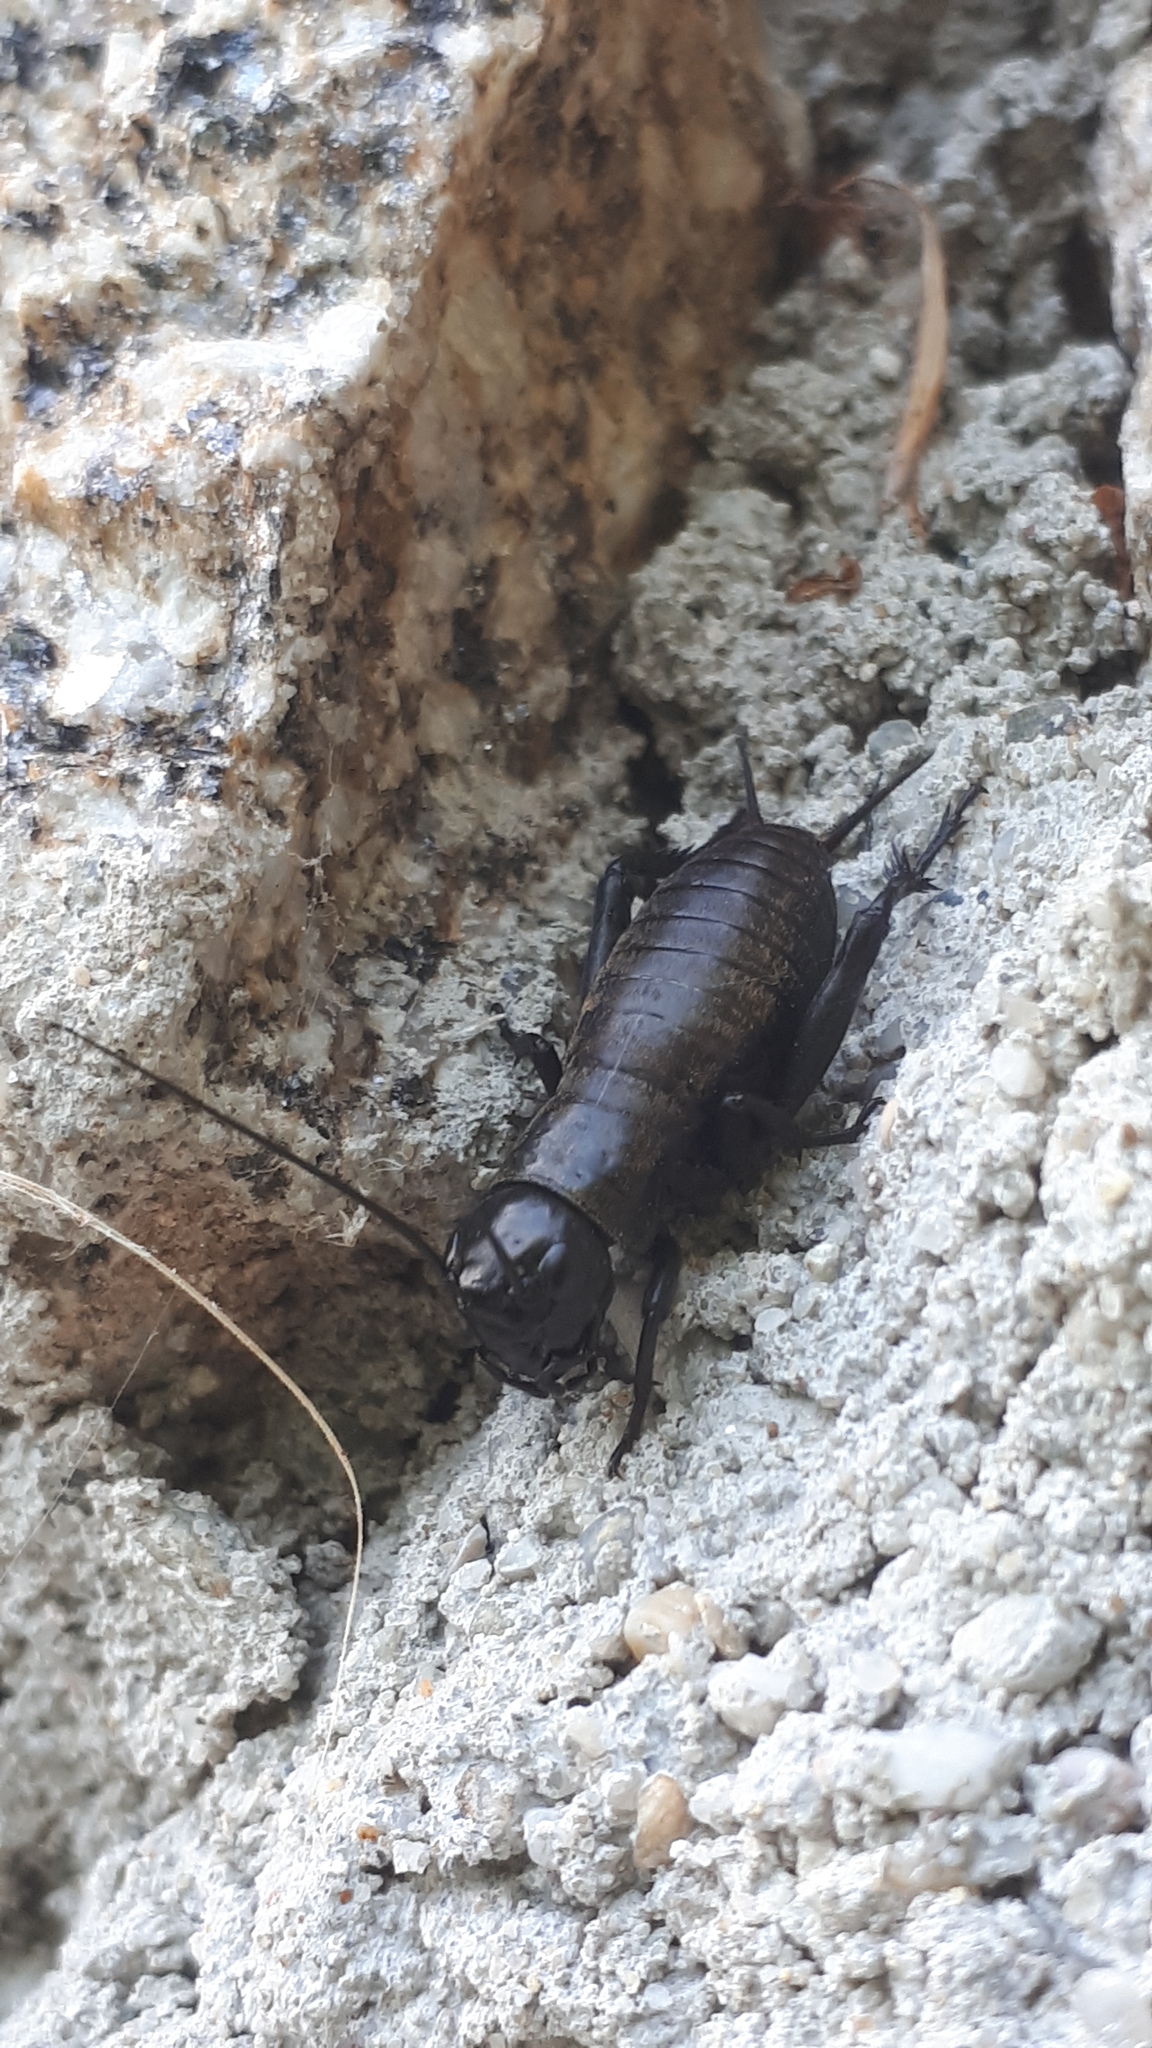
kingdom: Animalia
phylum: Arthropoda
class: Insecta
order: Orthoptera
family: Gryllidae
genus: Gryllus
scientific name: Gryllus campestris
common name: Field cricket
